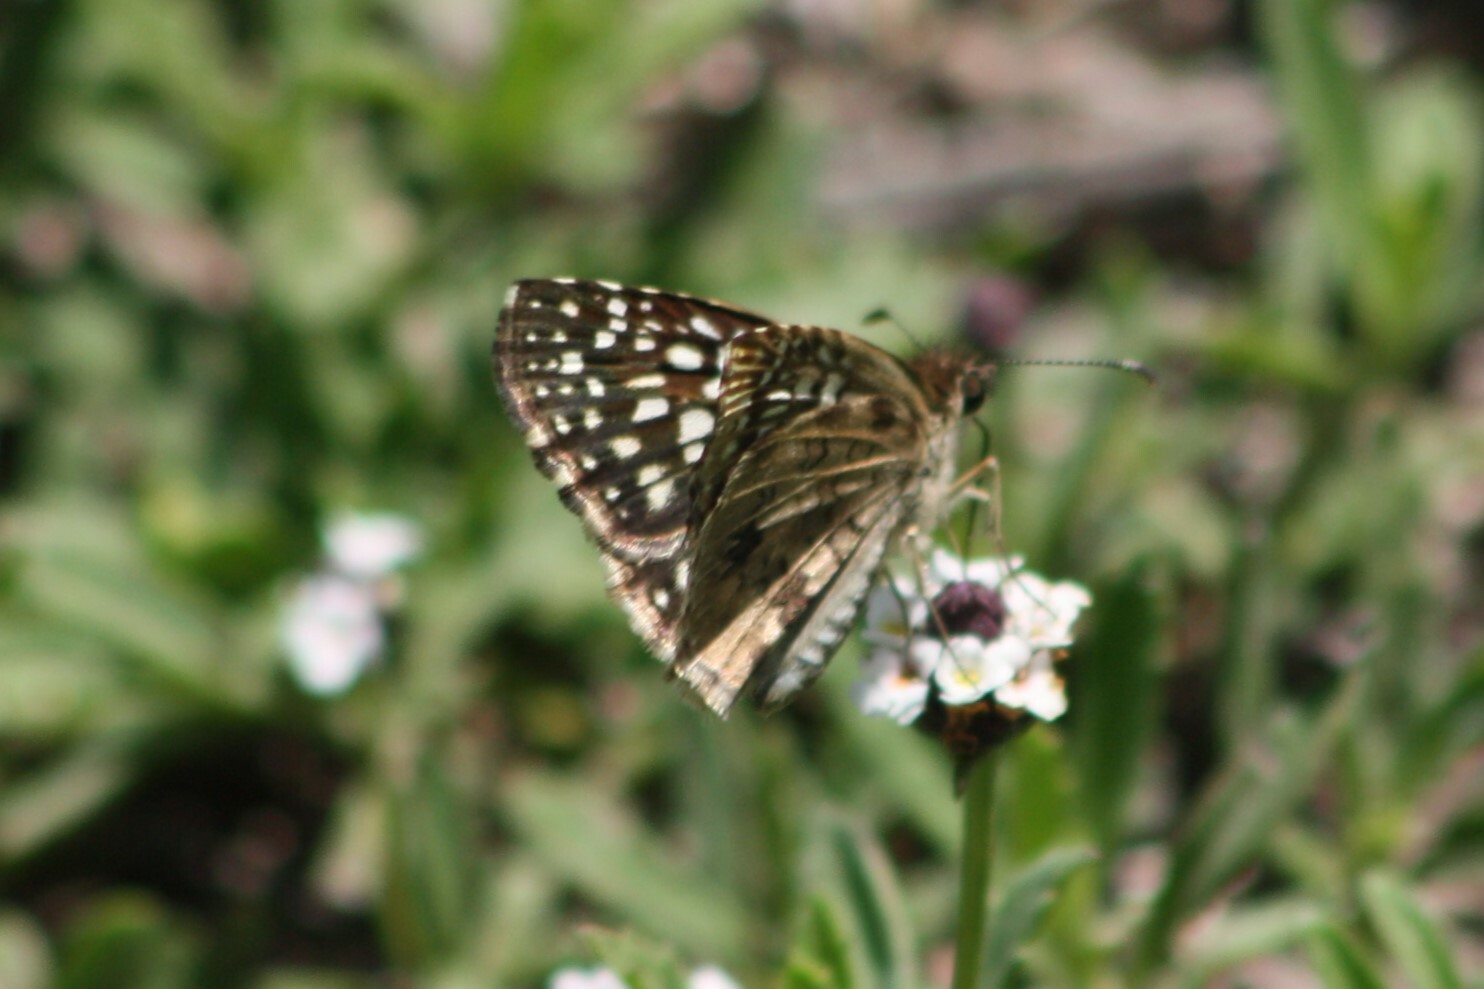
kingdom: Animalia
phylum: Arthropoda
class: Insecta
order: Lepidoptera
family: Hesperiidae
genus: Pyrgus
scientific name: Pyrgus oileus
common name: Tropical checkered-skipper
